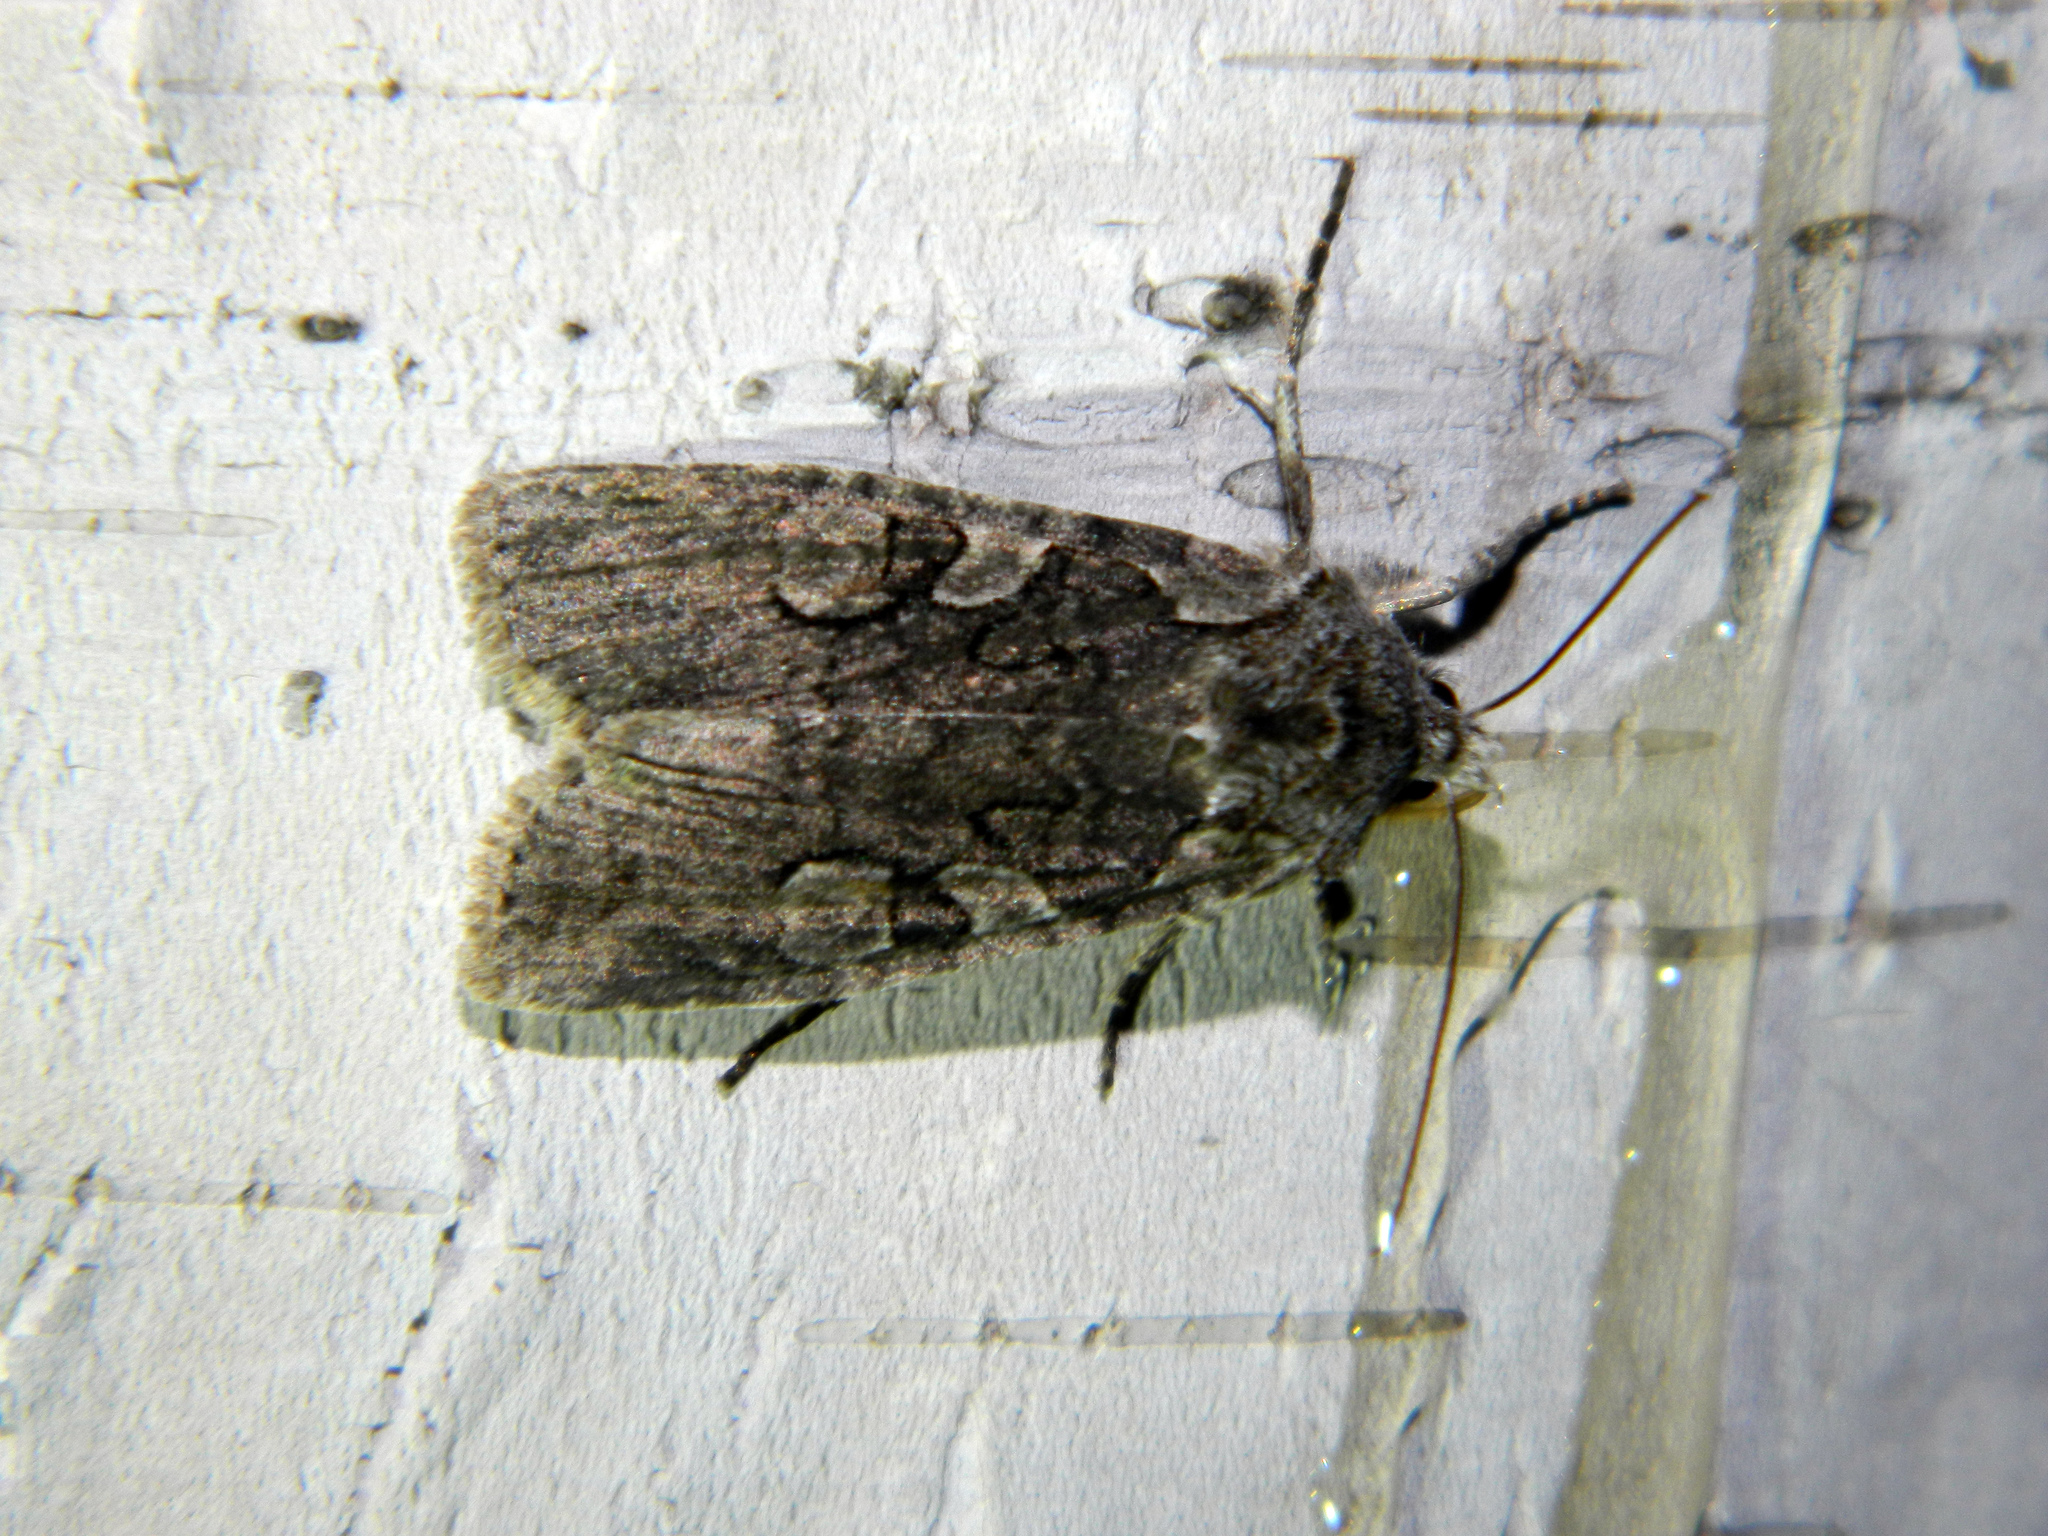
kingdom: Animalia
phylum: Arthropoda
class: Insecta
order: Lepidoptera
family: Noctuidae
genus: Lithophane
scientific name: Lithophane baileyi
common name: Bailey's pinion moth
